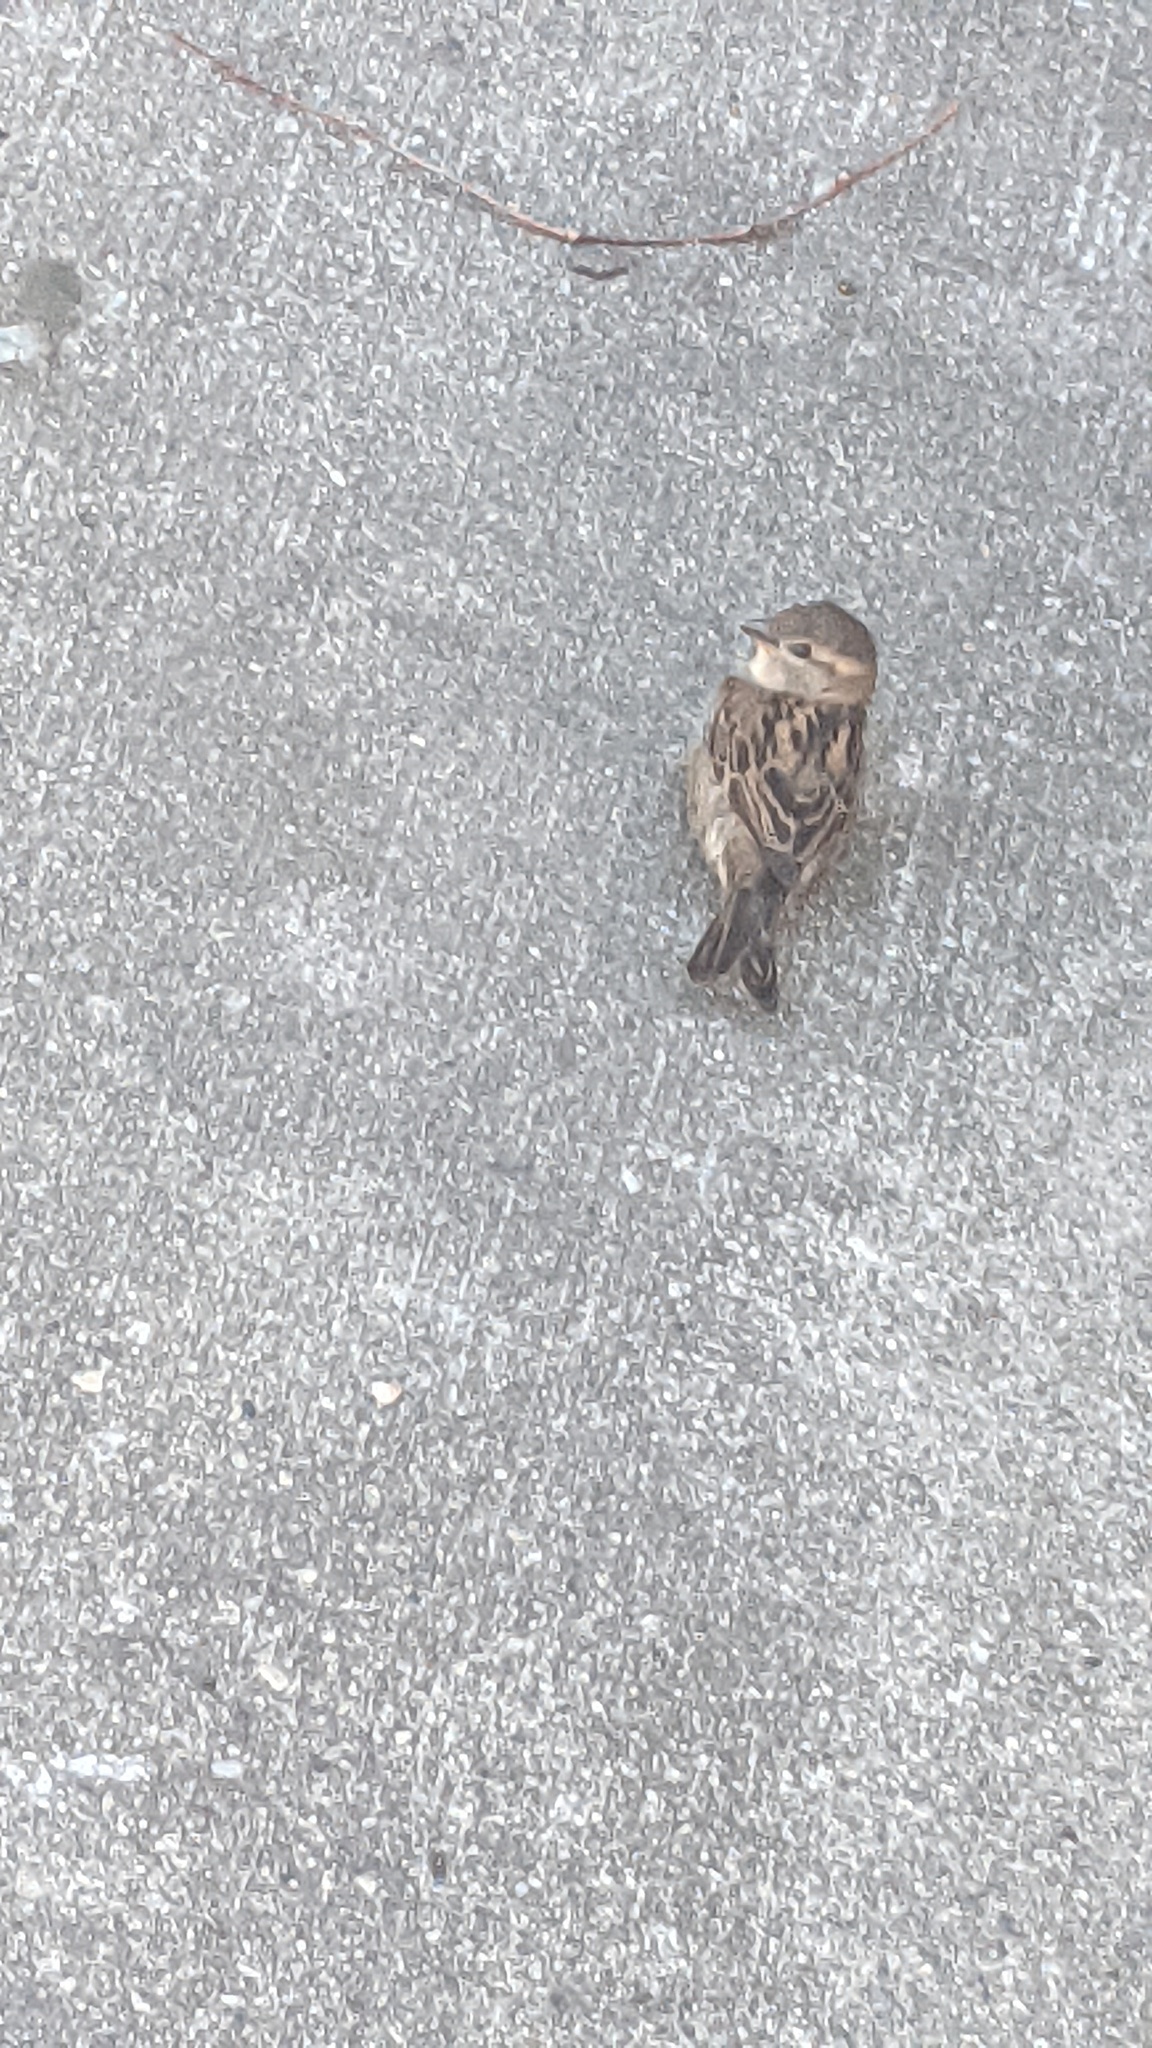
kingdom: Animalia
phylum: Chordata
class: Aves
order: Passeriformes
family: Passeridae
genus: Passer
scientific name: Passer domesticus
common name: House sparrow
